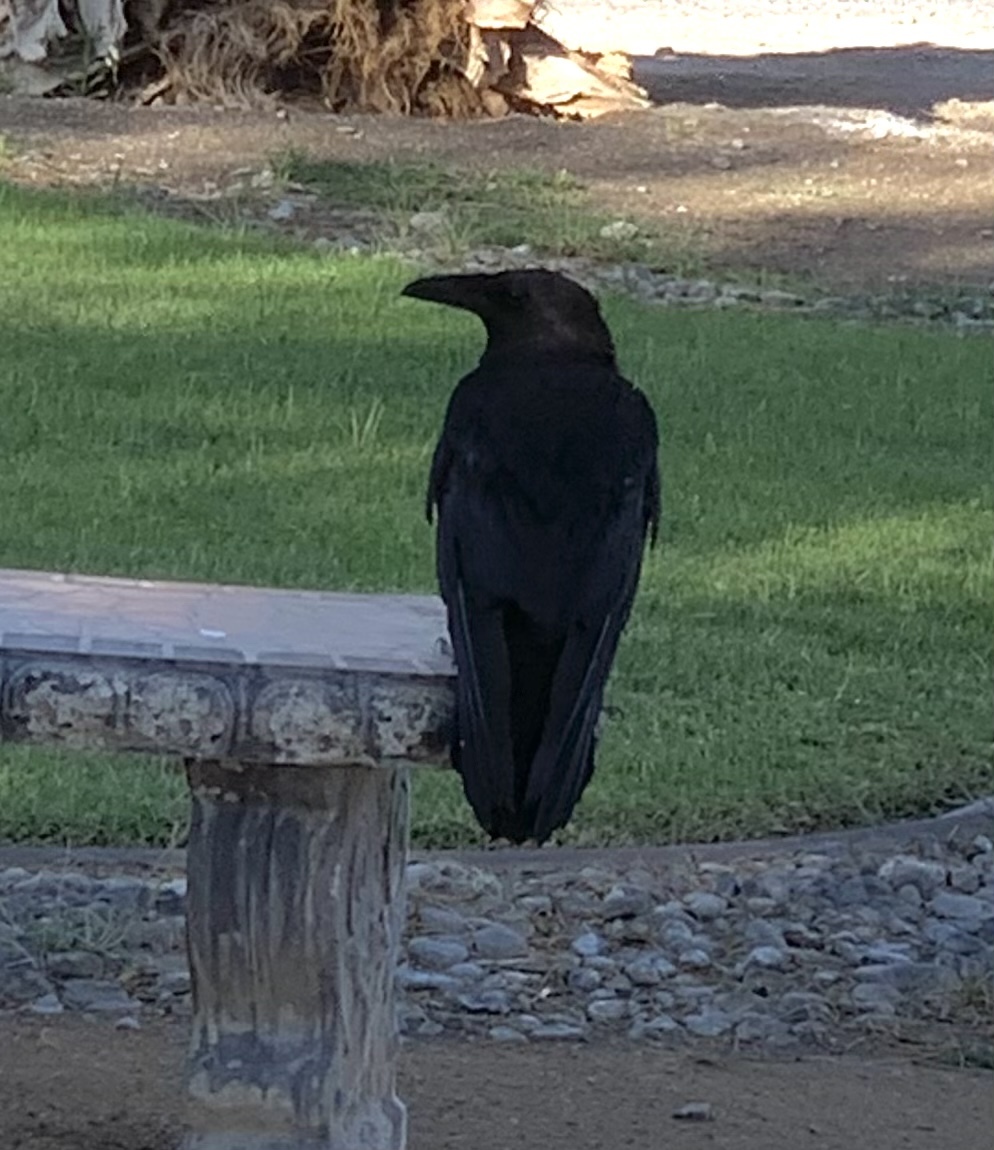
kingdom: Animalia
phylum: Chordata
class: Aves
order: Passeriformes
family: Corvidae
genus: Corvus
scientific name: Corvus corax
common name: Common raven
